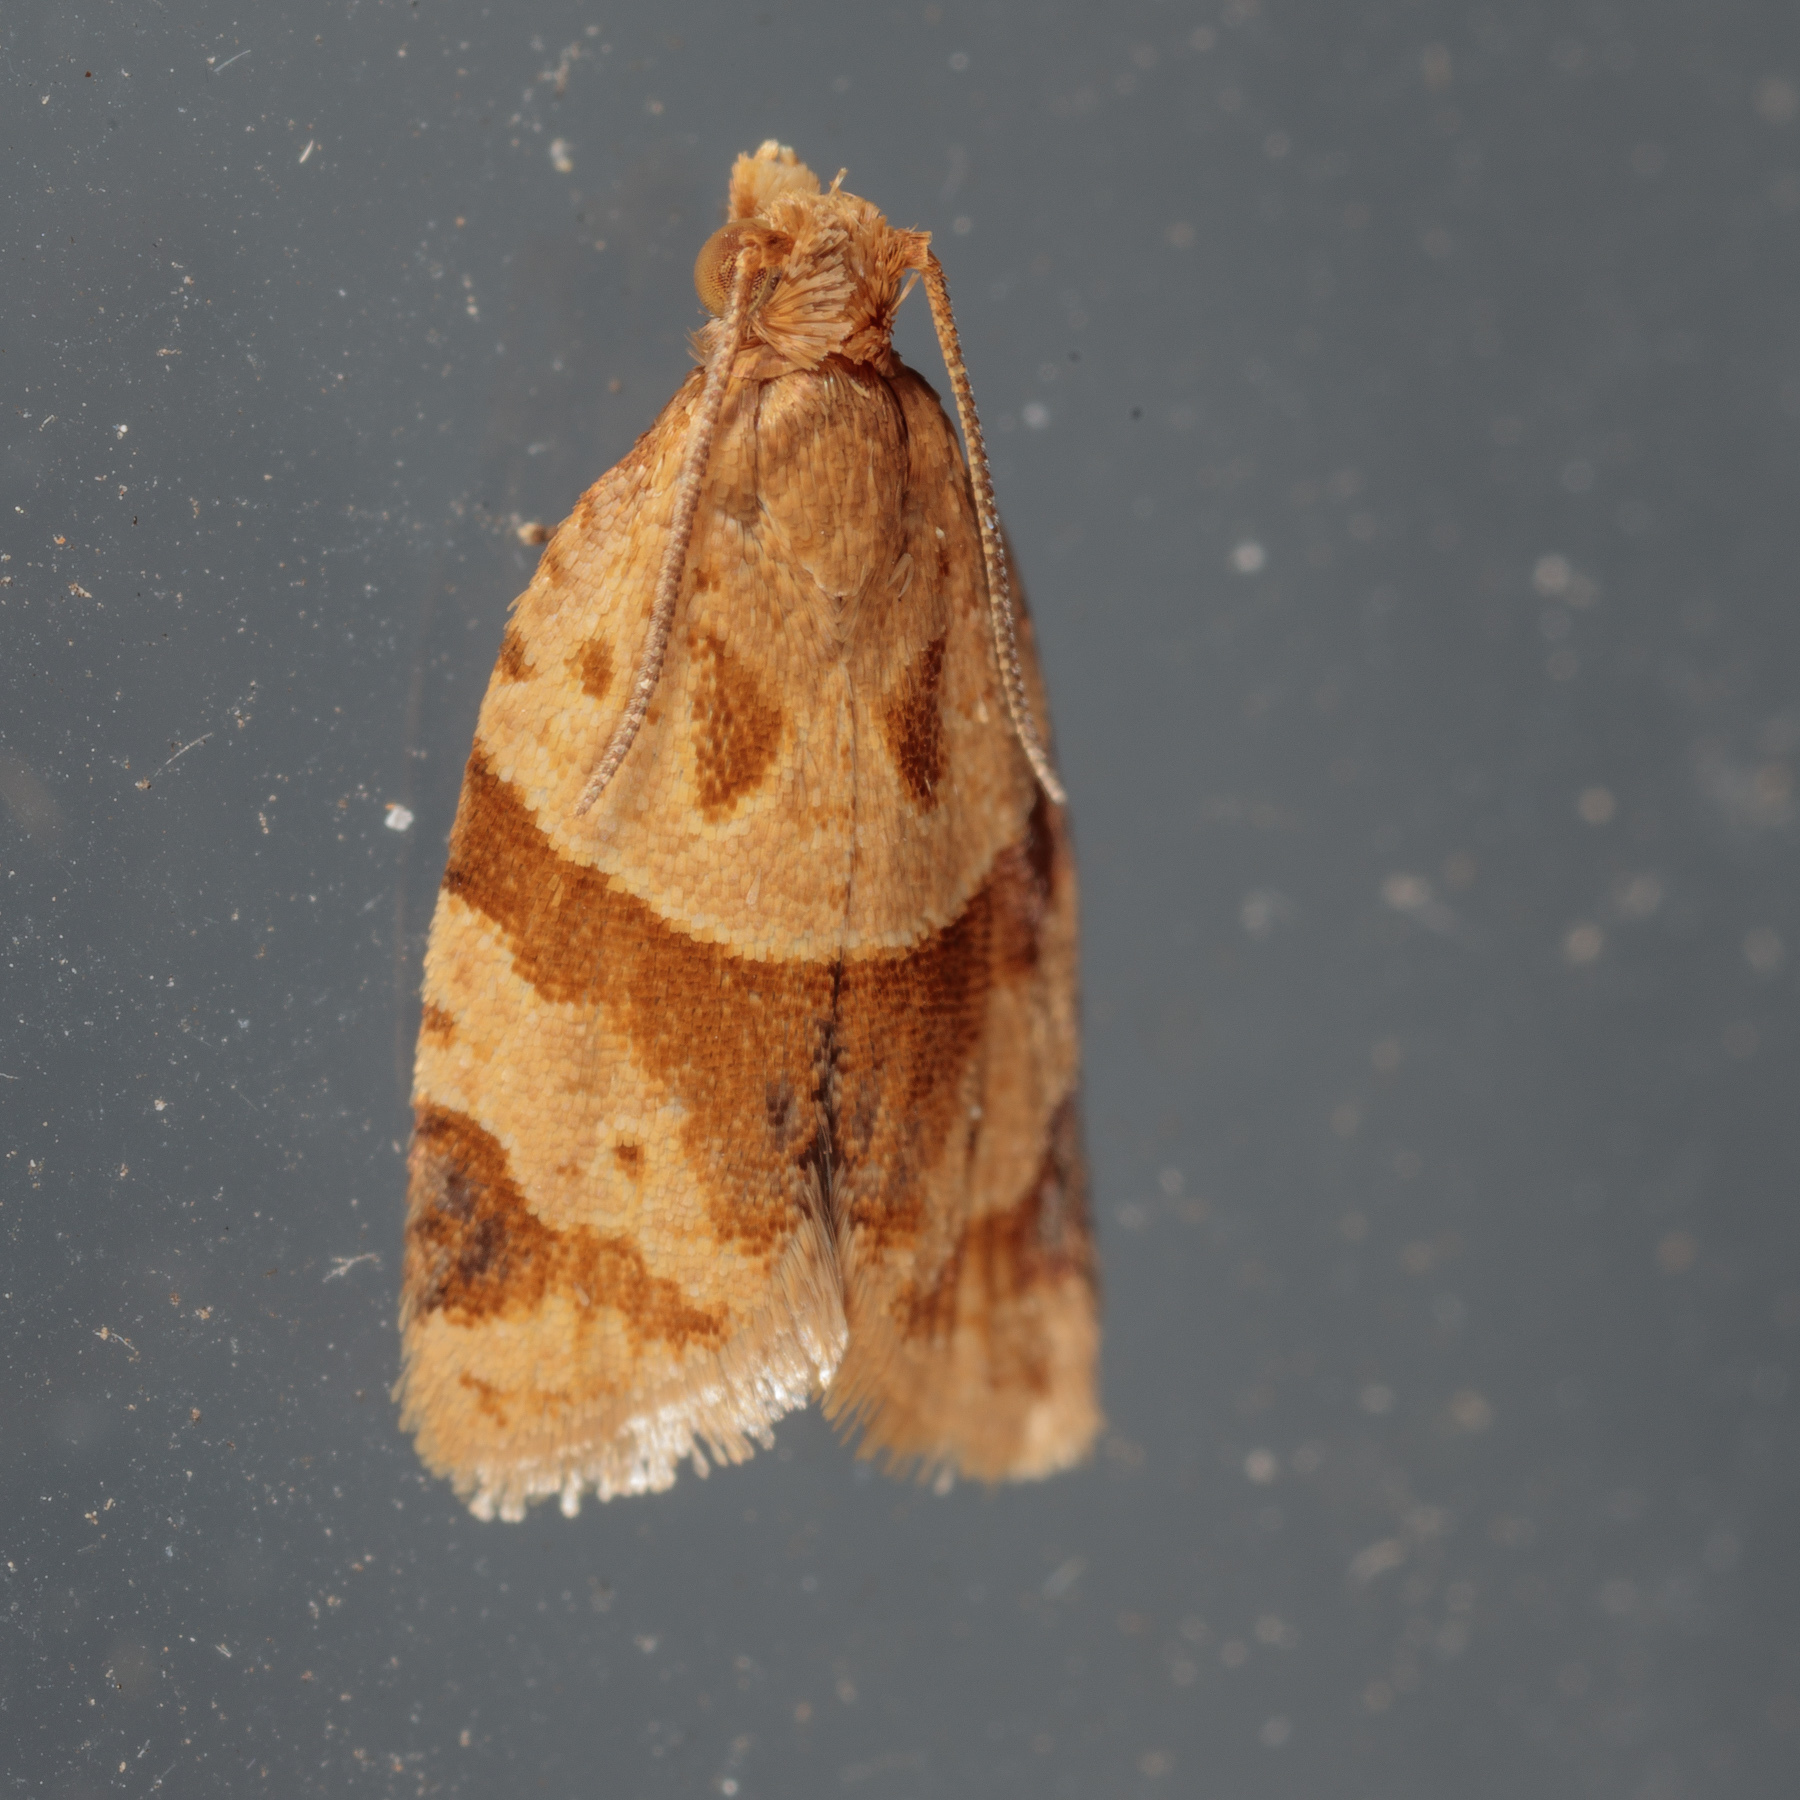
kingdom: Animalia
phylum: Arthropoda
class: Insecta
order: Lepidoptera
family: Tortricidae
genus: Clepsis
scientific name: Clepsis peritana
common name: Garden tortrix
